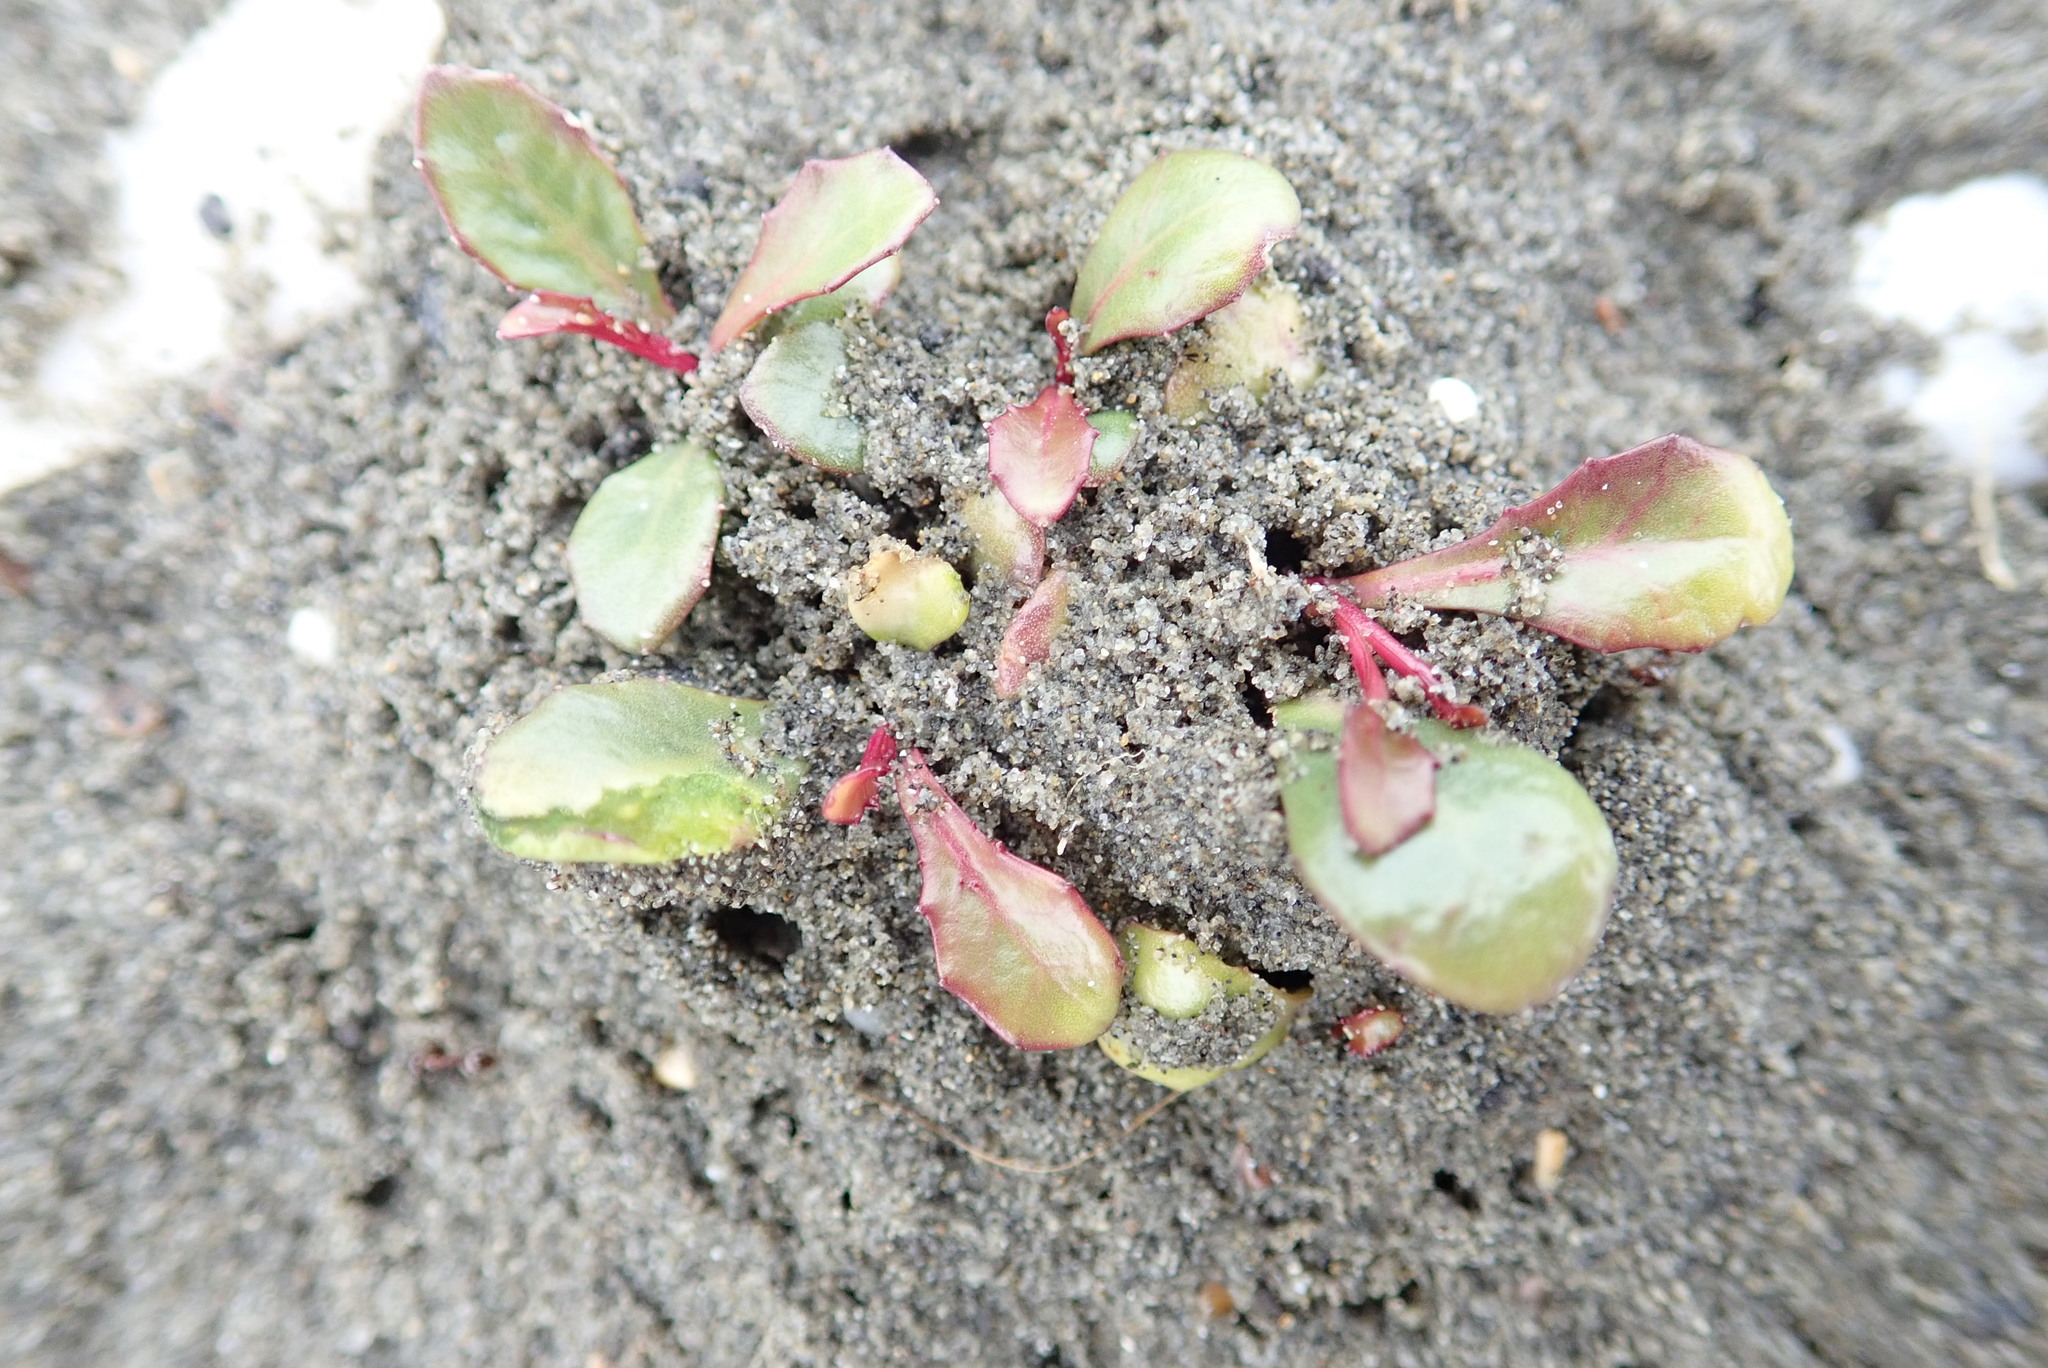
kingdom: Plantae
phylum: Tracheophyta
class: Magnoliopsida
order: Asterales
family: Campanulaceae
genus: Lobelia
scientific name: Lobelia anceps
